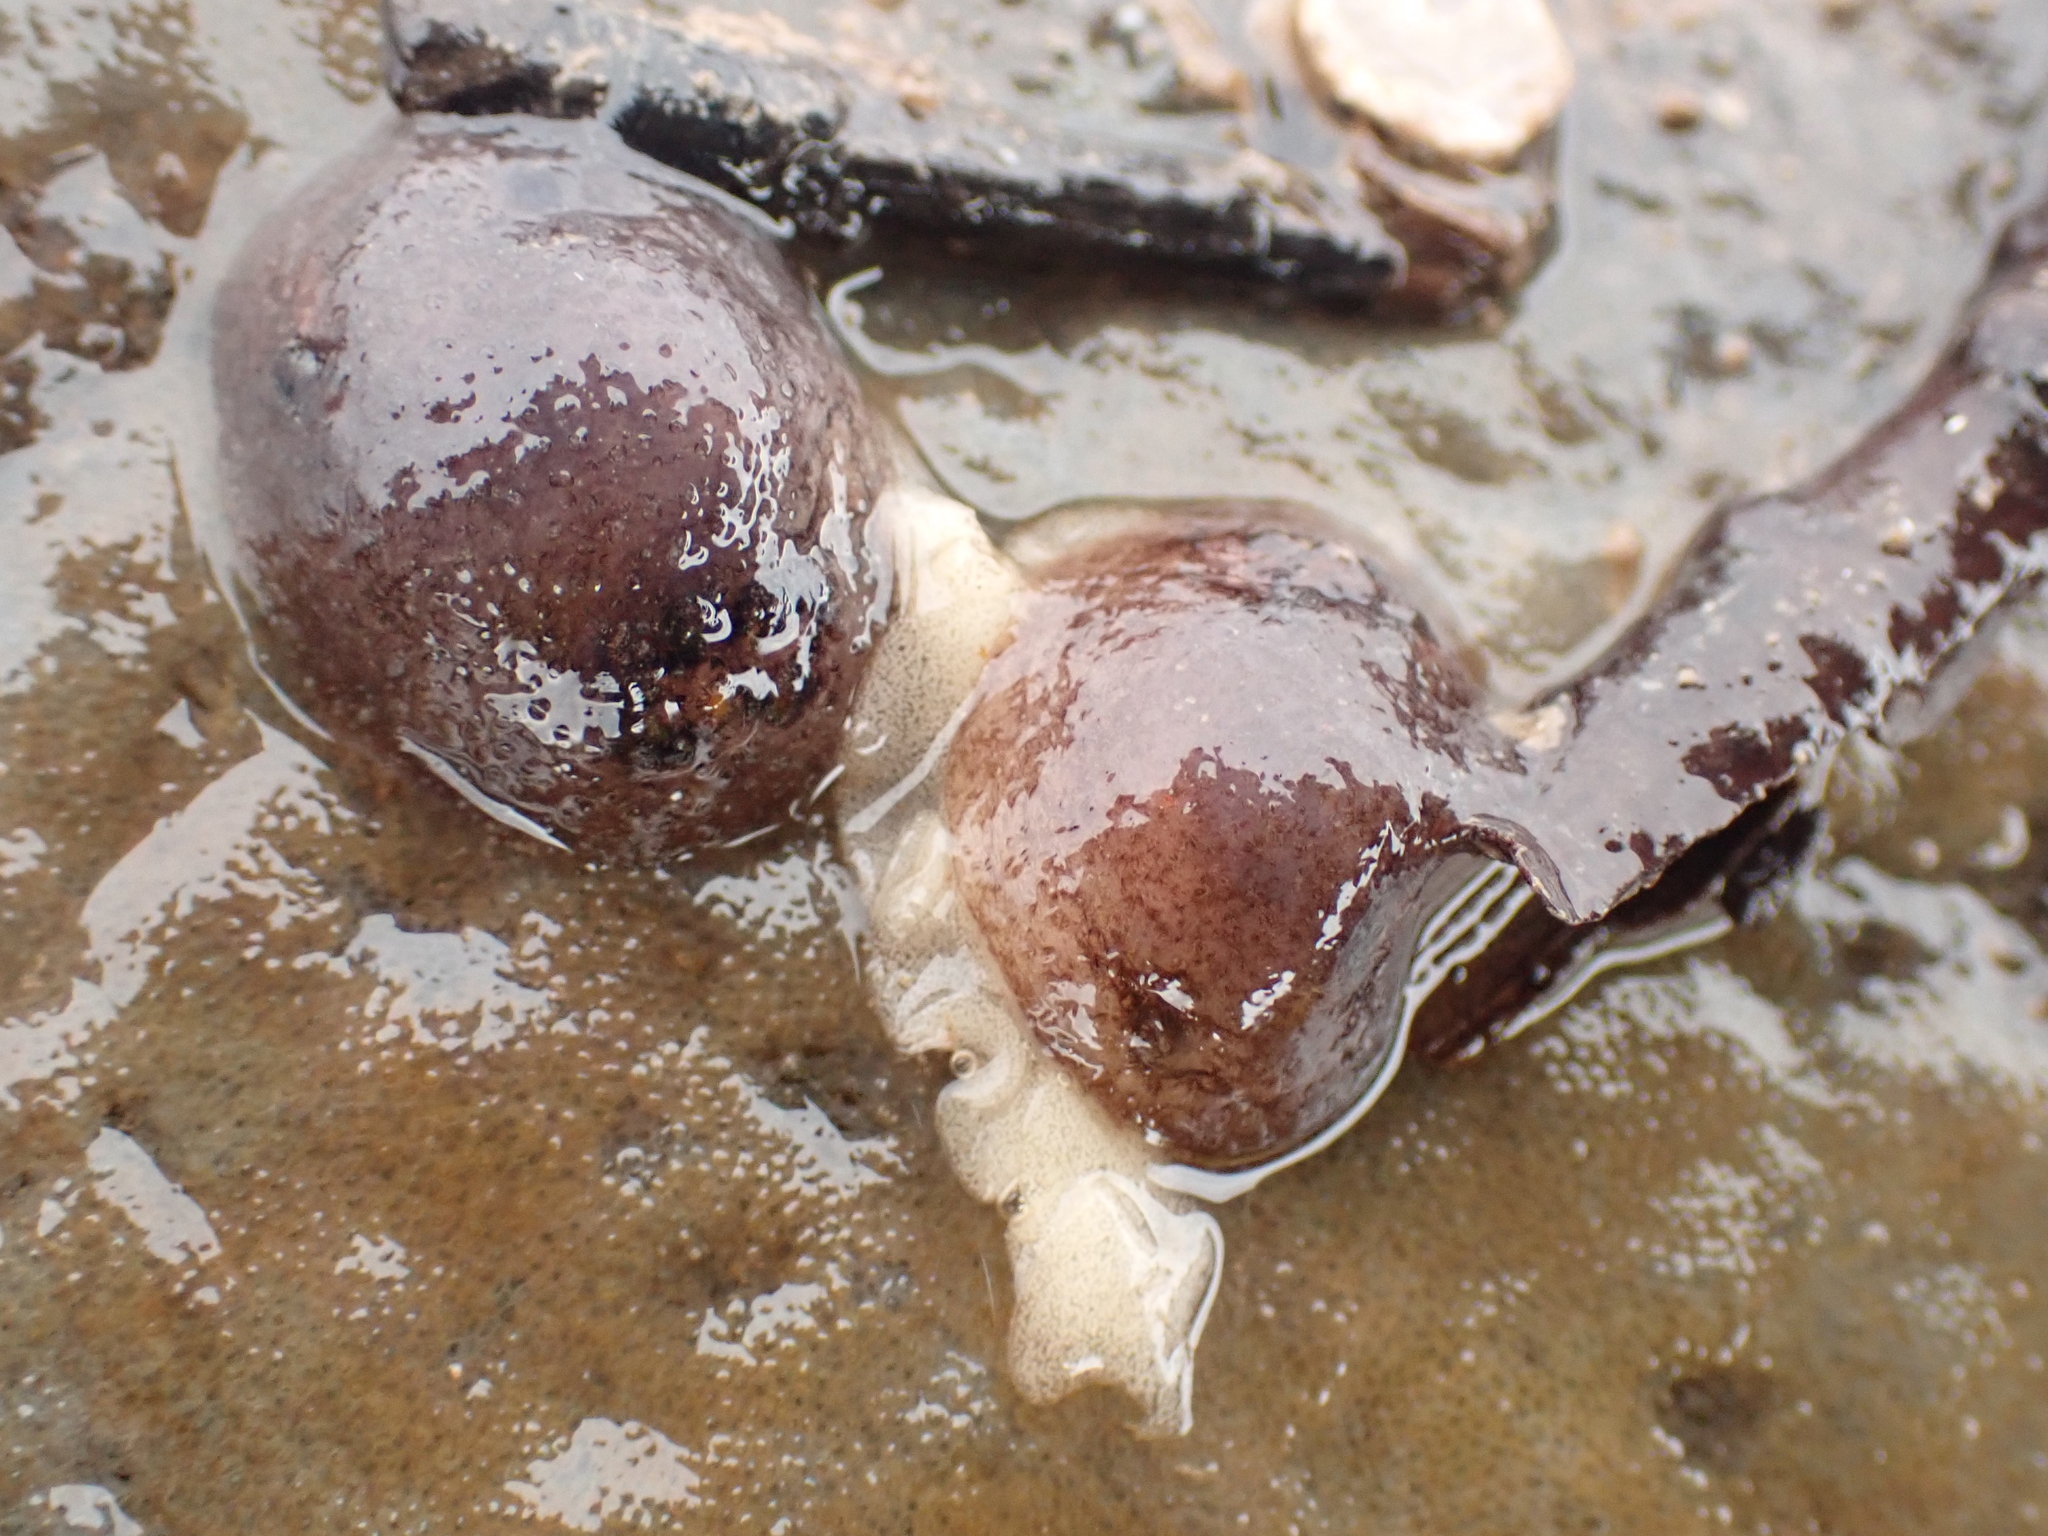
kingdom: Animalia
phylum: Mollusca
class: Gastropoda
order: Nudibranchia
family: Onchidorididae
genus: Onchidoris
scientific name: Onchidoris bilamellata
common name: Barnacle-eating onchidoris
